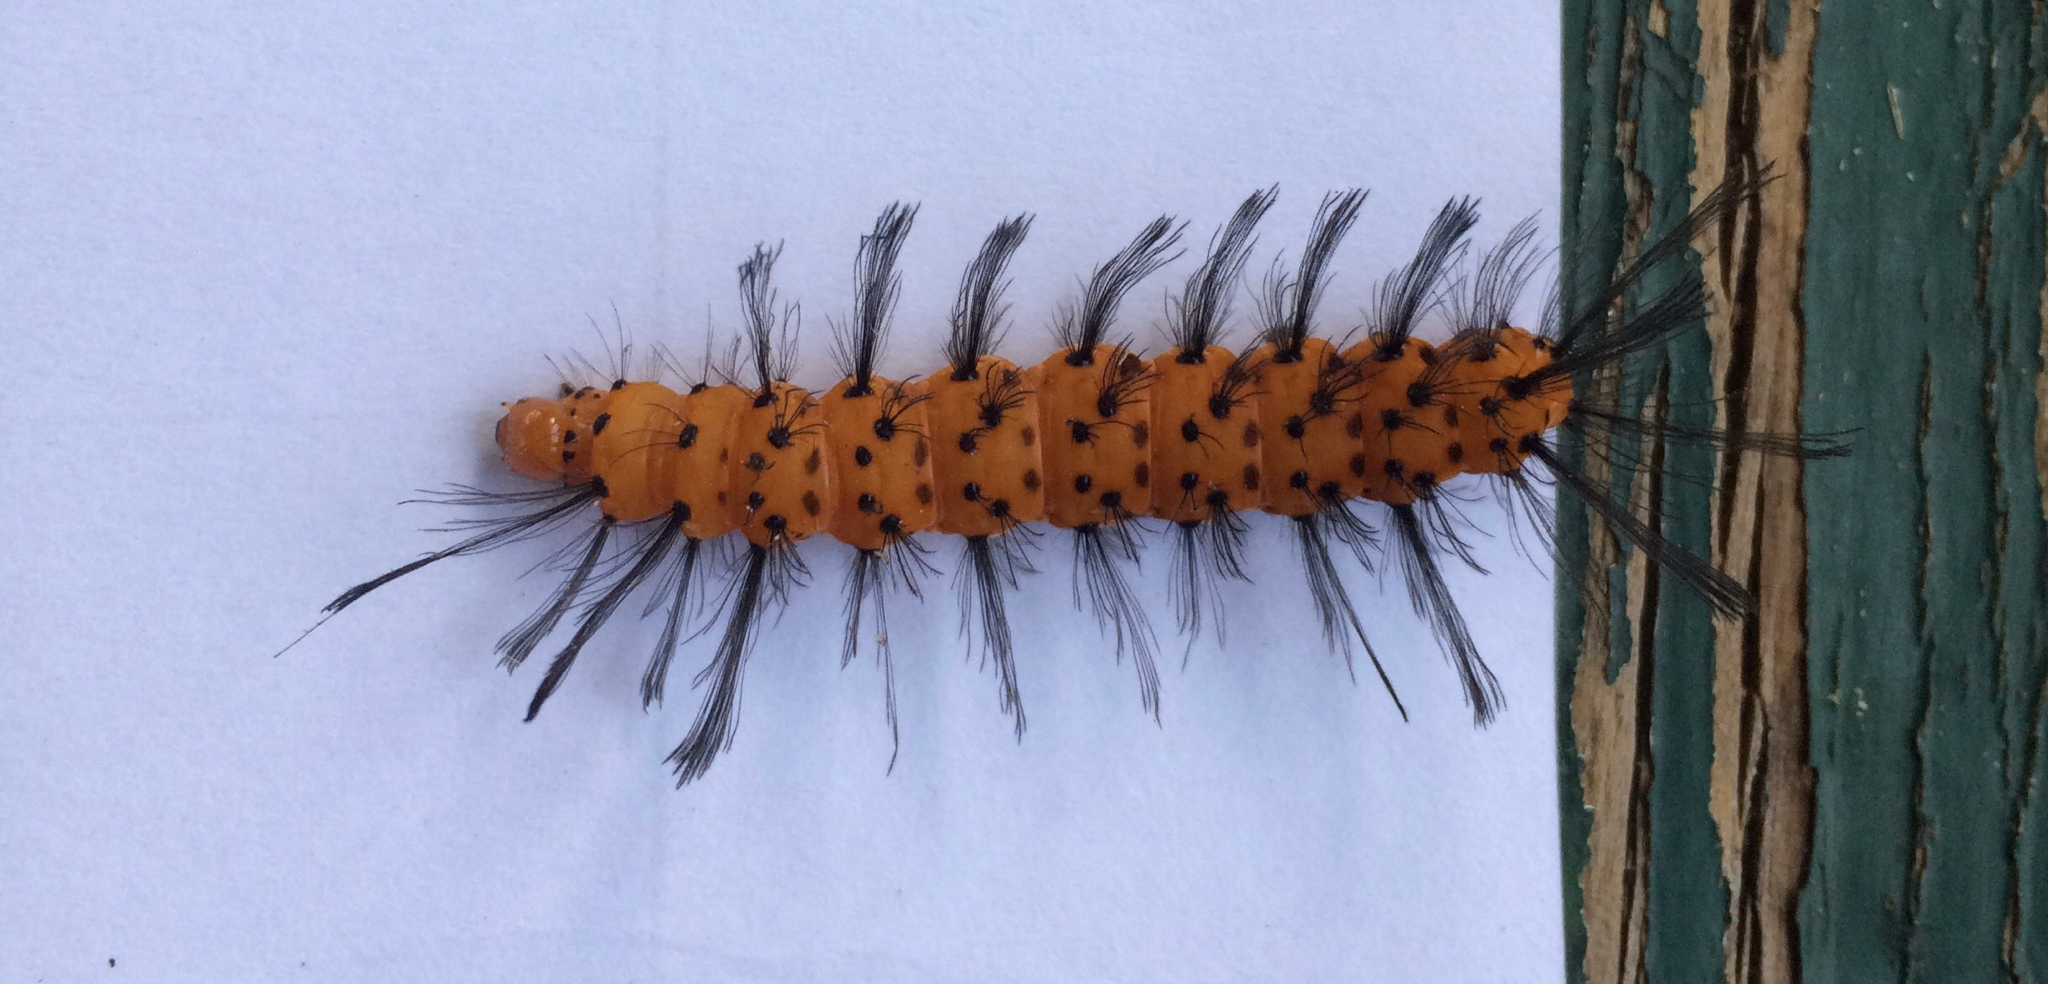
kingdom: Animalia
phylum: Arthropoda
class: Insecta
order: Lepidoptera
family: Erebidae
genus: Syntomeida
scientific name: Syntomeida epilais
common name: Polka-dot wasp moth
